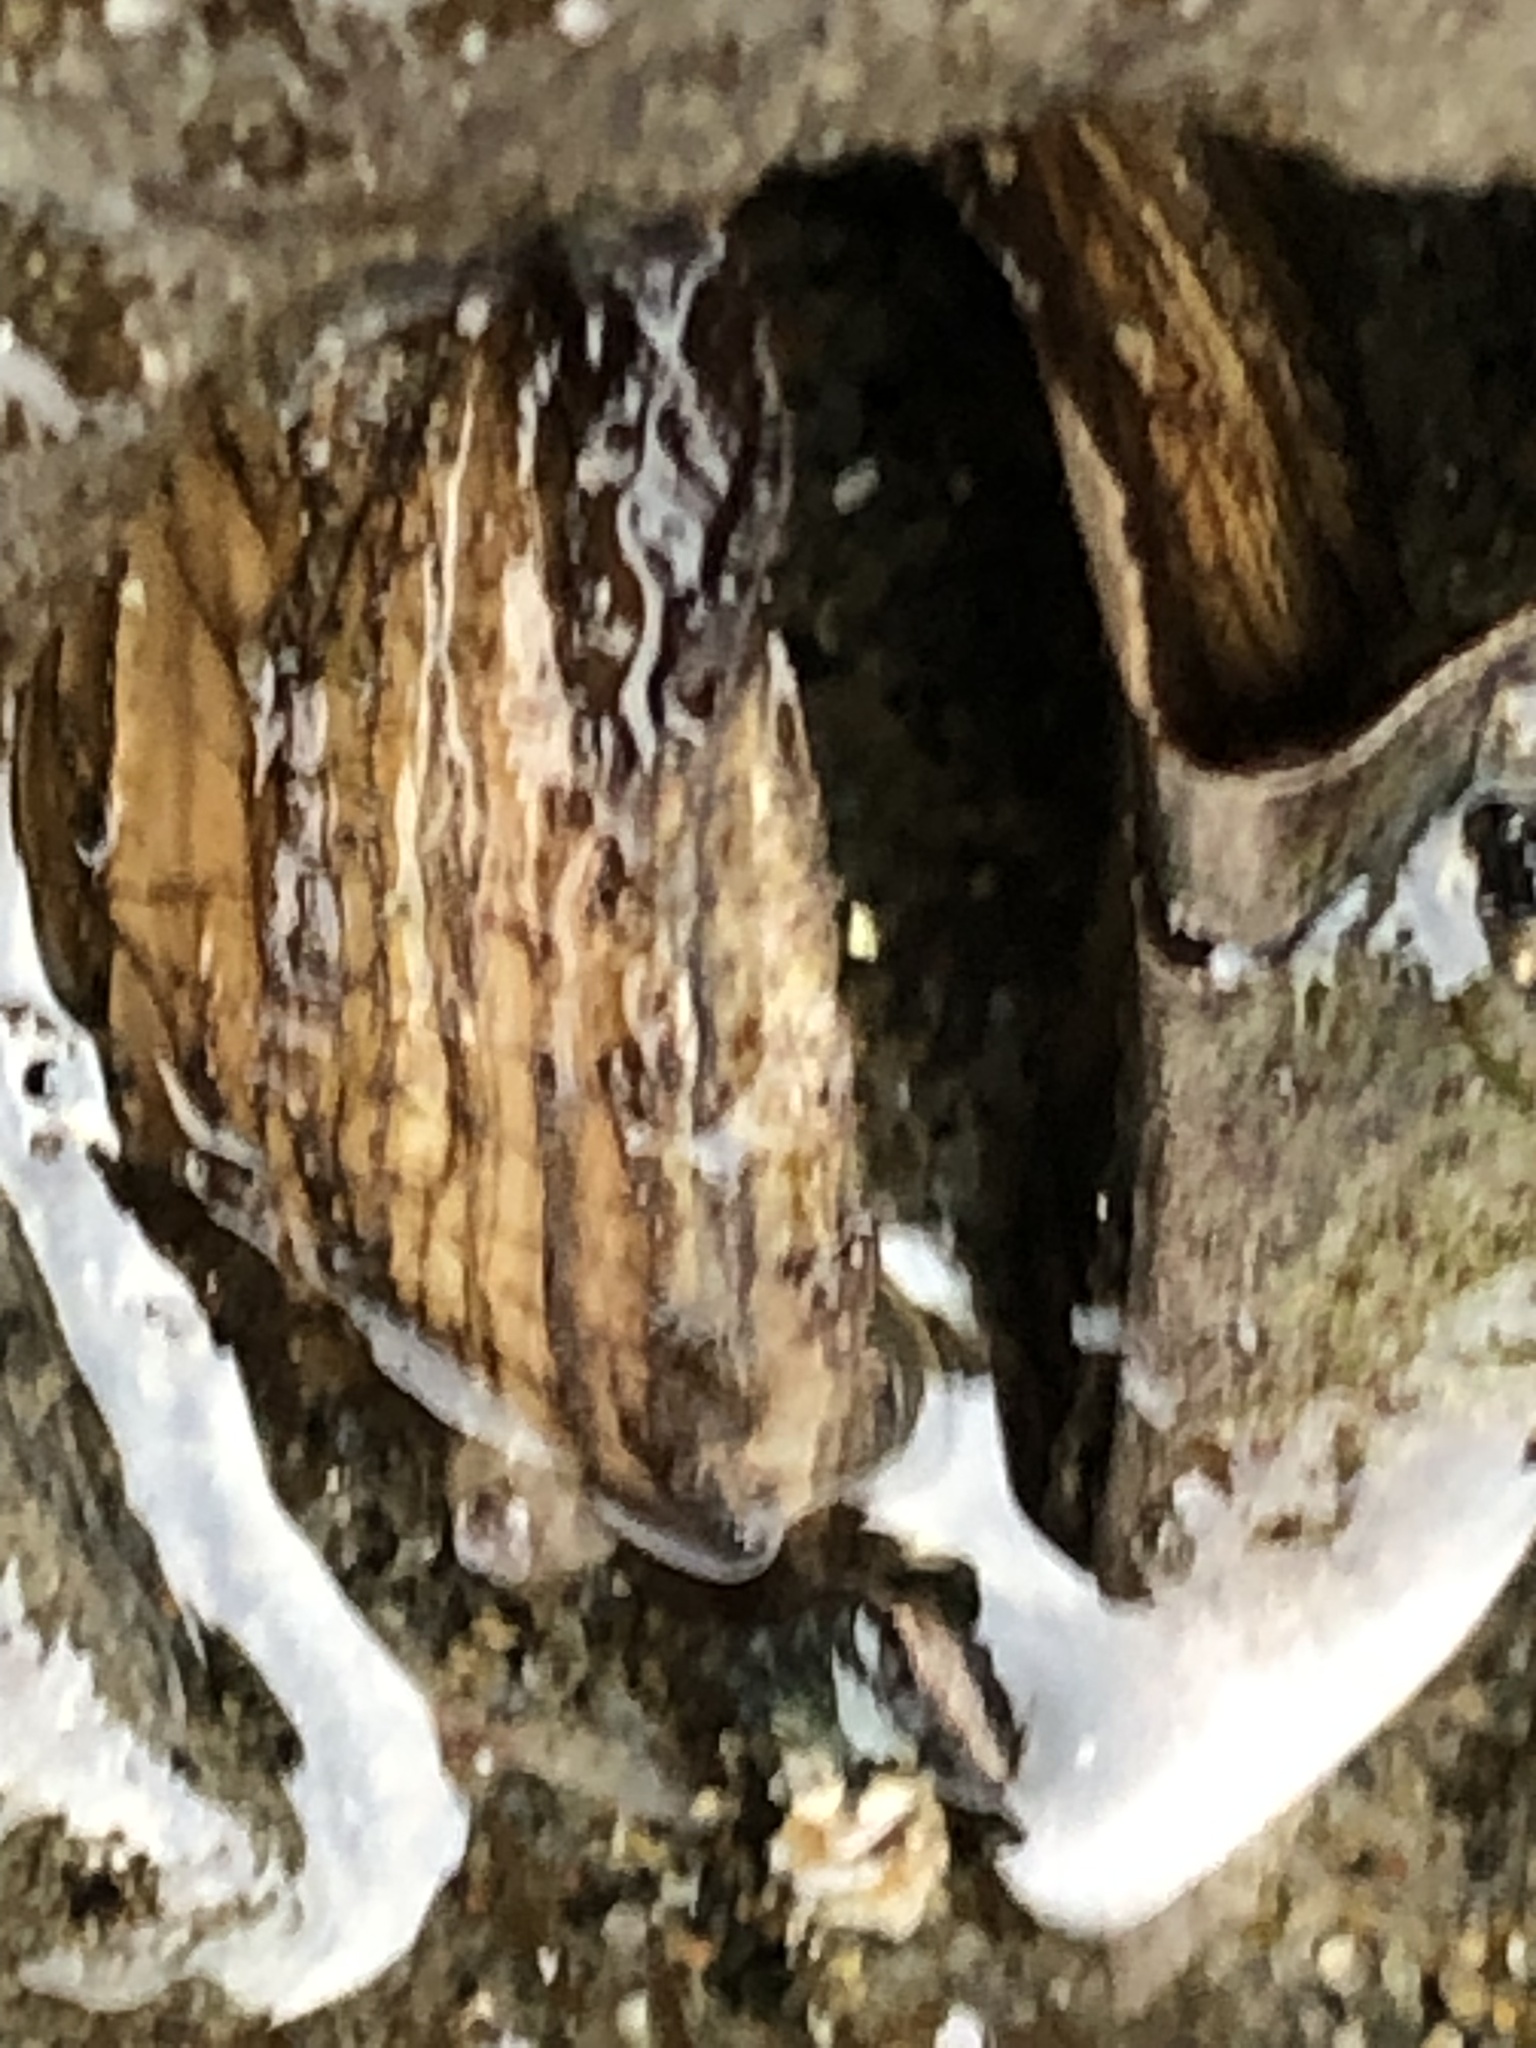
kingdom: Animalia
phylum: Mollusca
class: Bivalvia
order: Myida
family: Pholadidae
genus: Penitella
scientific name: Penitella penita
